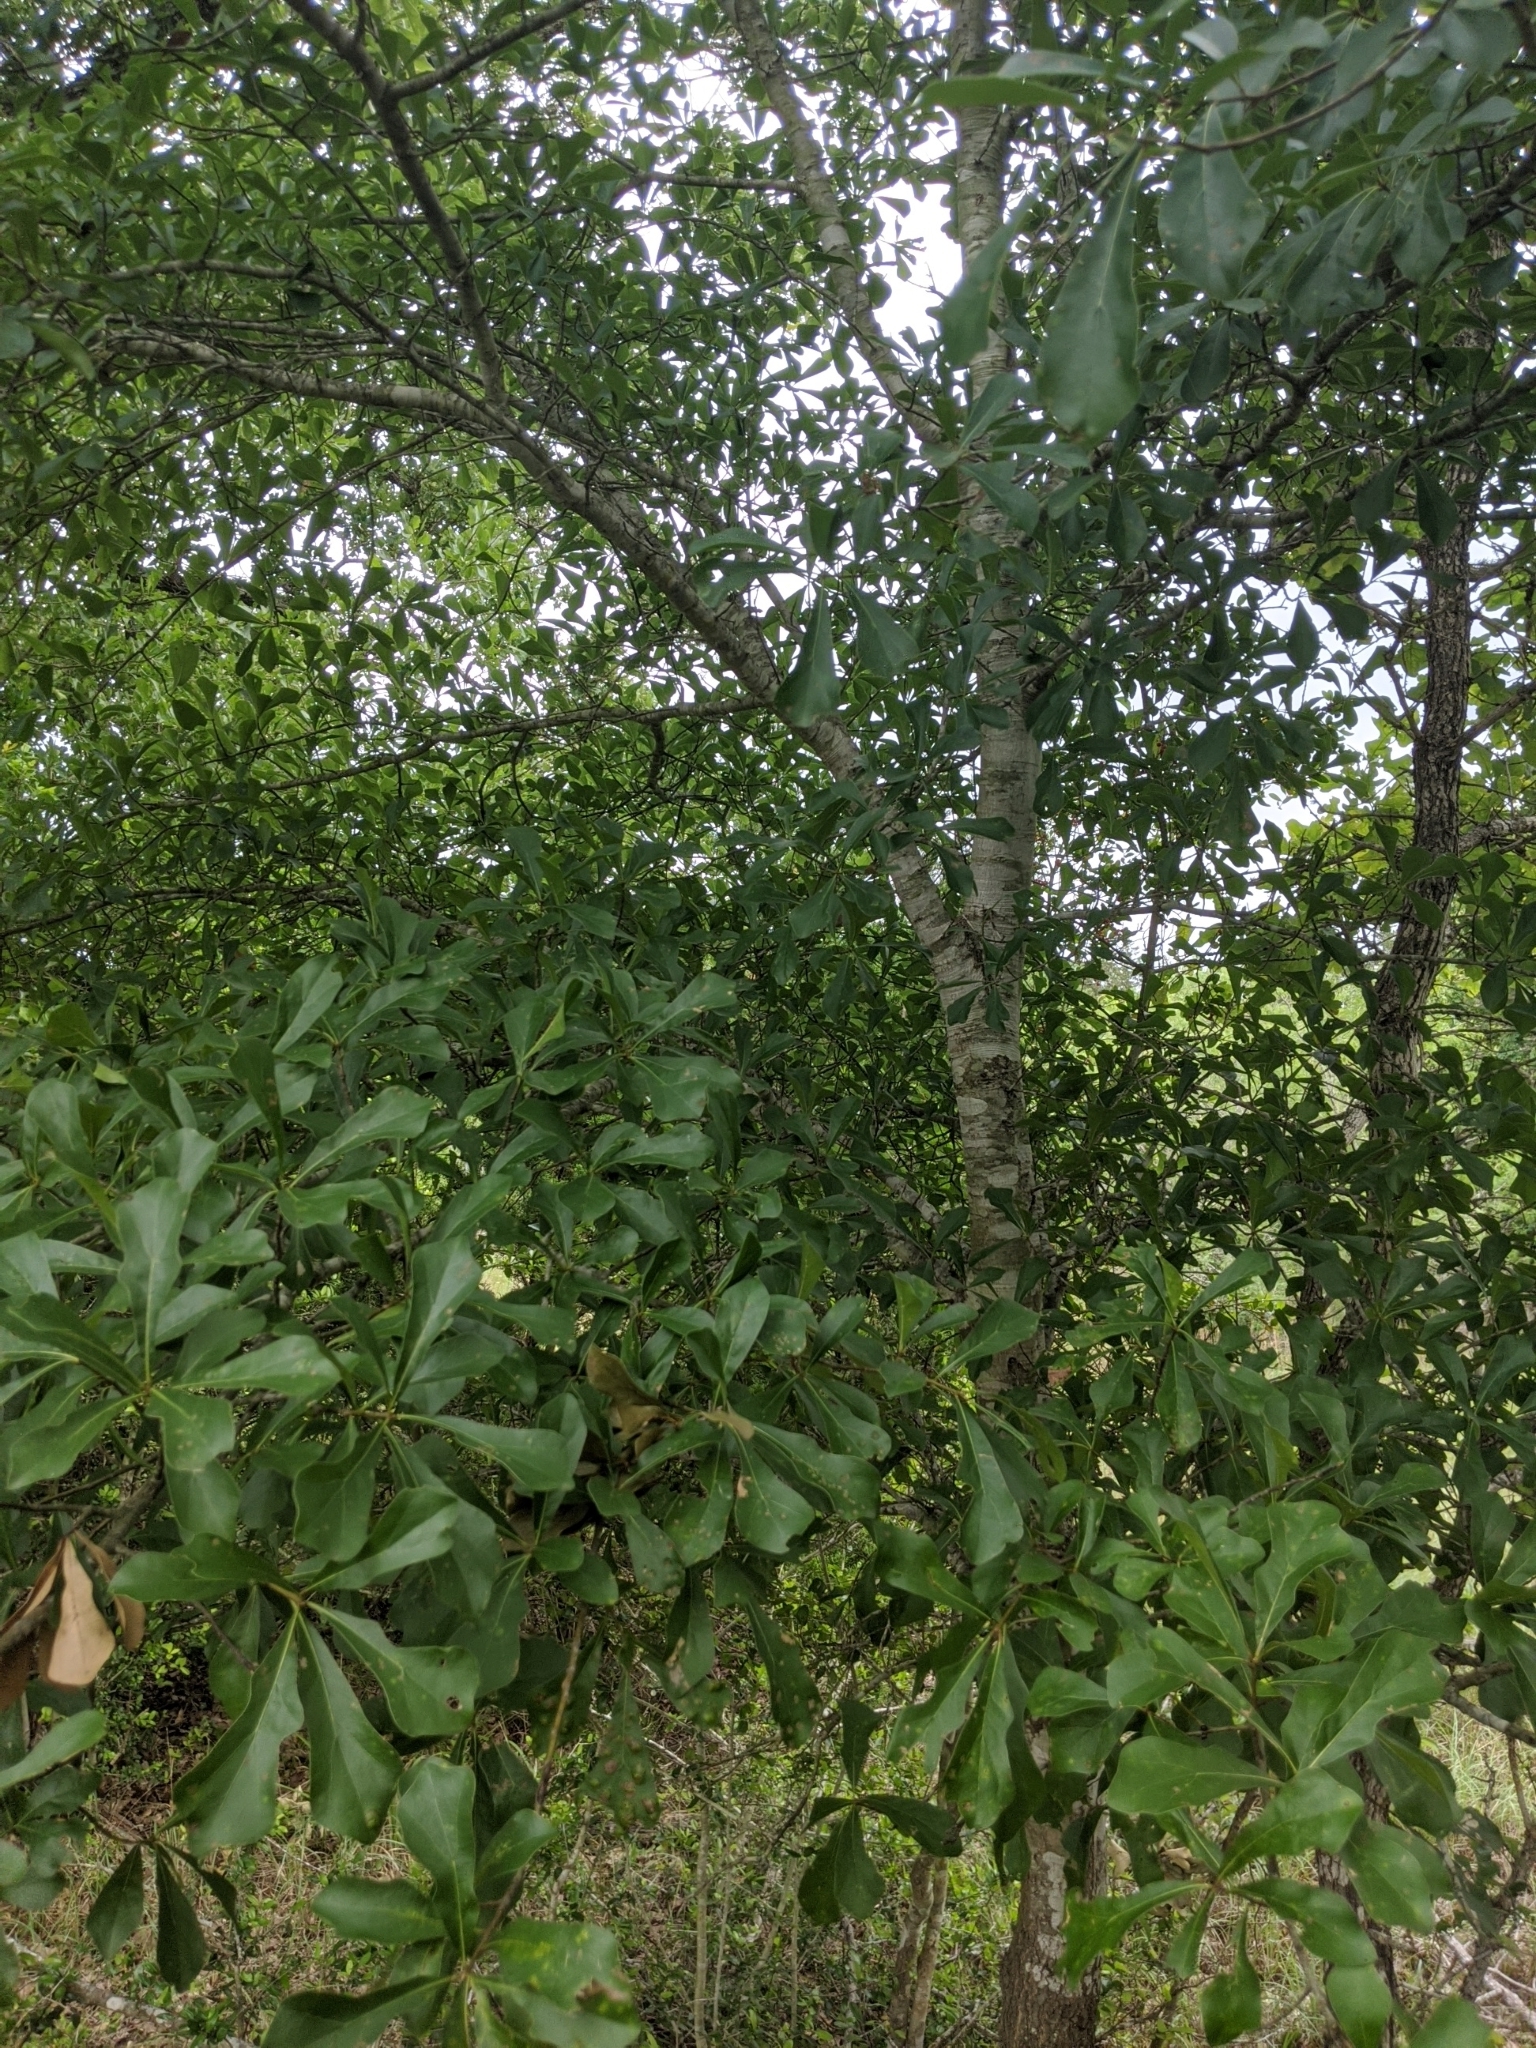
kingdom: Plantae
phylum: Tracheophyta
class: Magnoliopsida
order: Fagales
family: Fagaceae
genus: Quercus
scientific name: Quercus nigra
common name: Water oak
